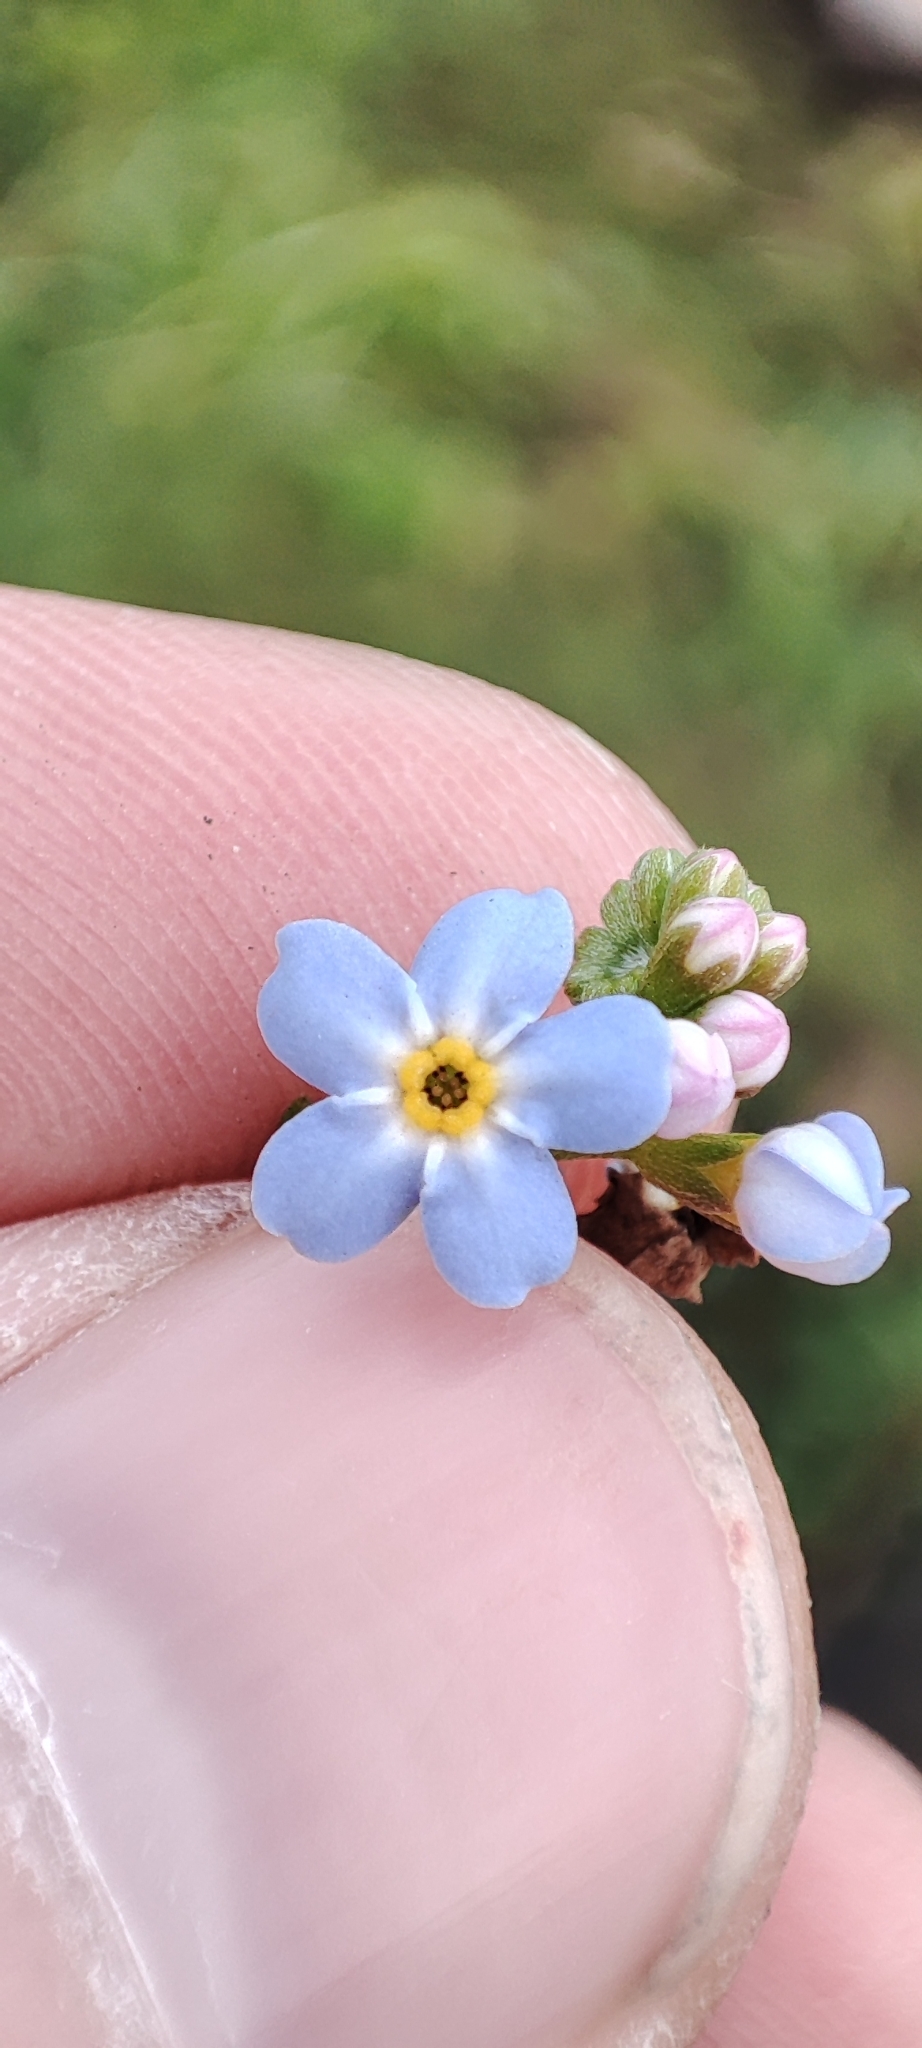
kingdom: Plantae
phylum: Tracheophyta
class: Magnoliopsida
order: Boraginales
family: Boraginaceae
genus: Myosotis
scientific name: Myosotis scorpioides
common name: Water forget-me-not
